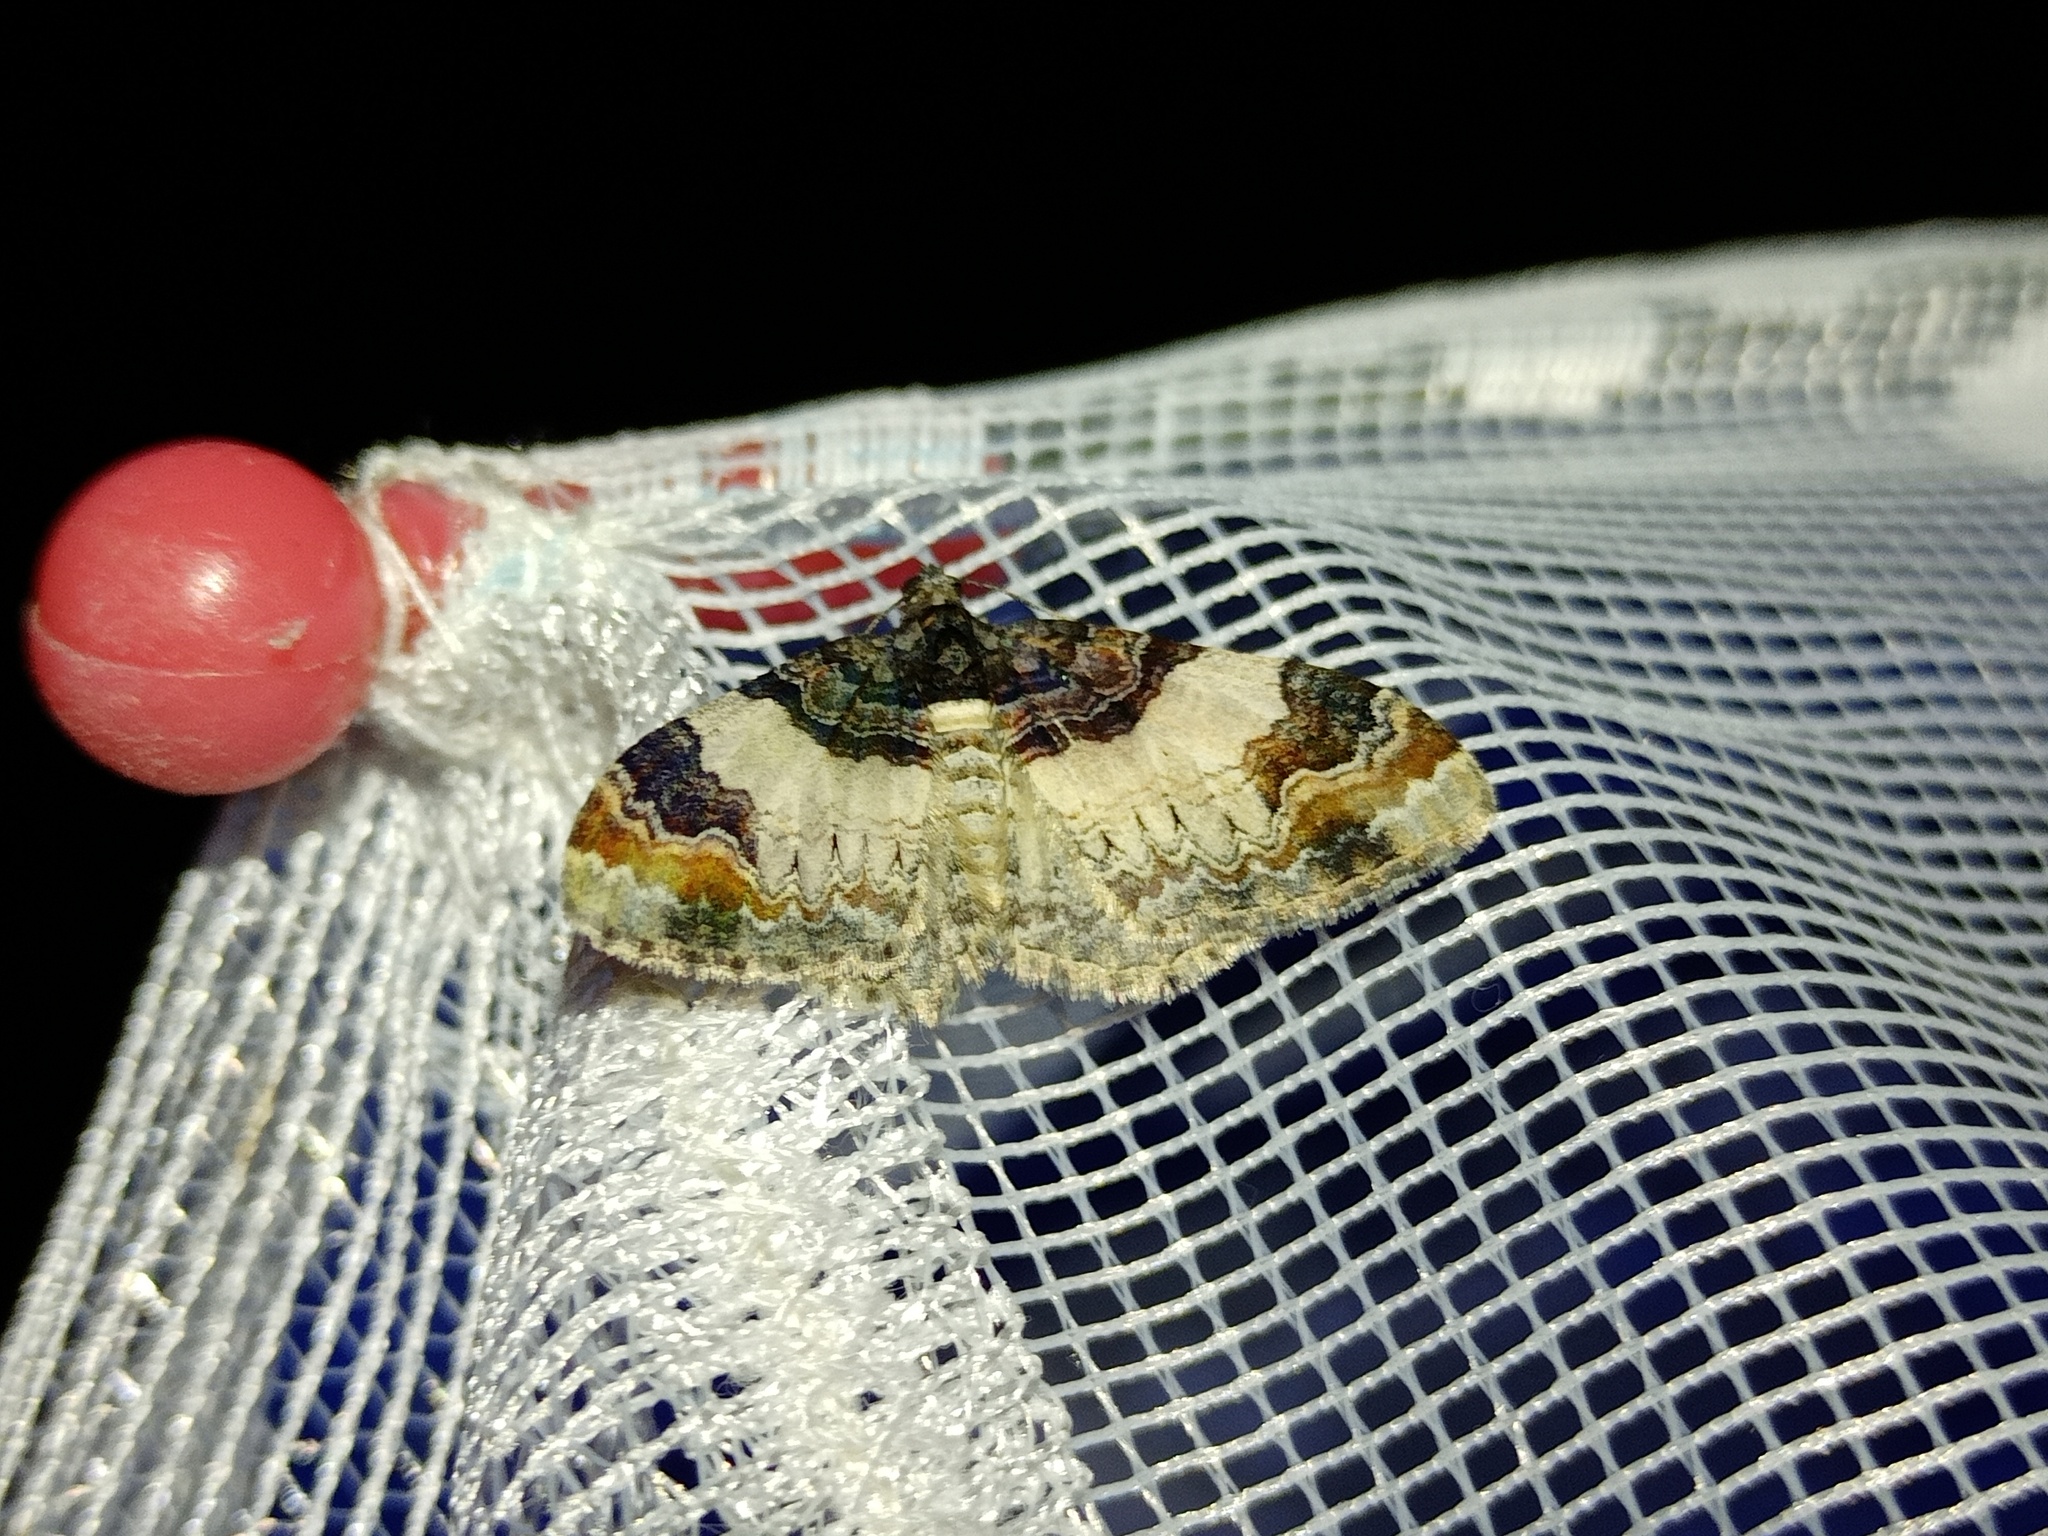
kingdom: Animalia
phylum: Arthropoda
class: Insecta
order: Lepidoptera
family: Geometridae
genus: Catarhoe
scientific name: Catarhoe cuculata
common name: Royal mantle
